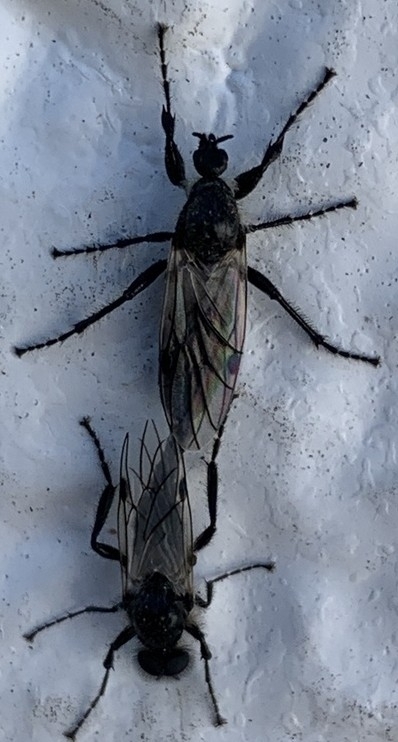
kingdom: Animalia
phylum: Arthropoda
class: Insecta
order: Diptera
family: Bibionidae
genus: Bibio
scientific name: Bibio albipennis
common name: White-winged march fly
